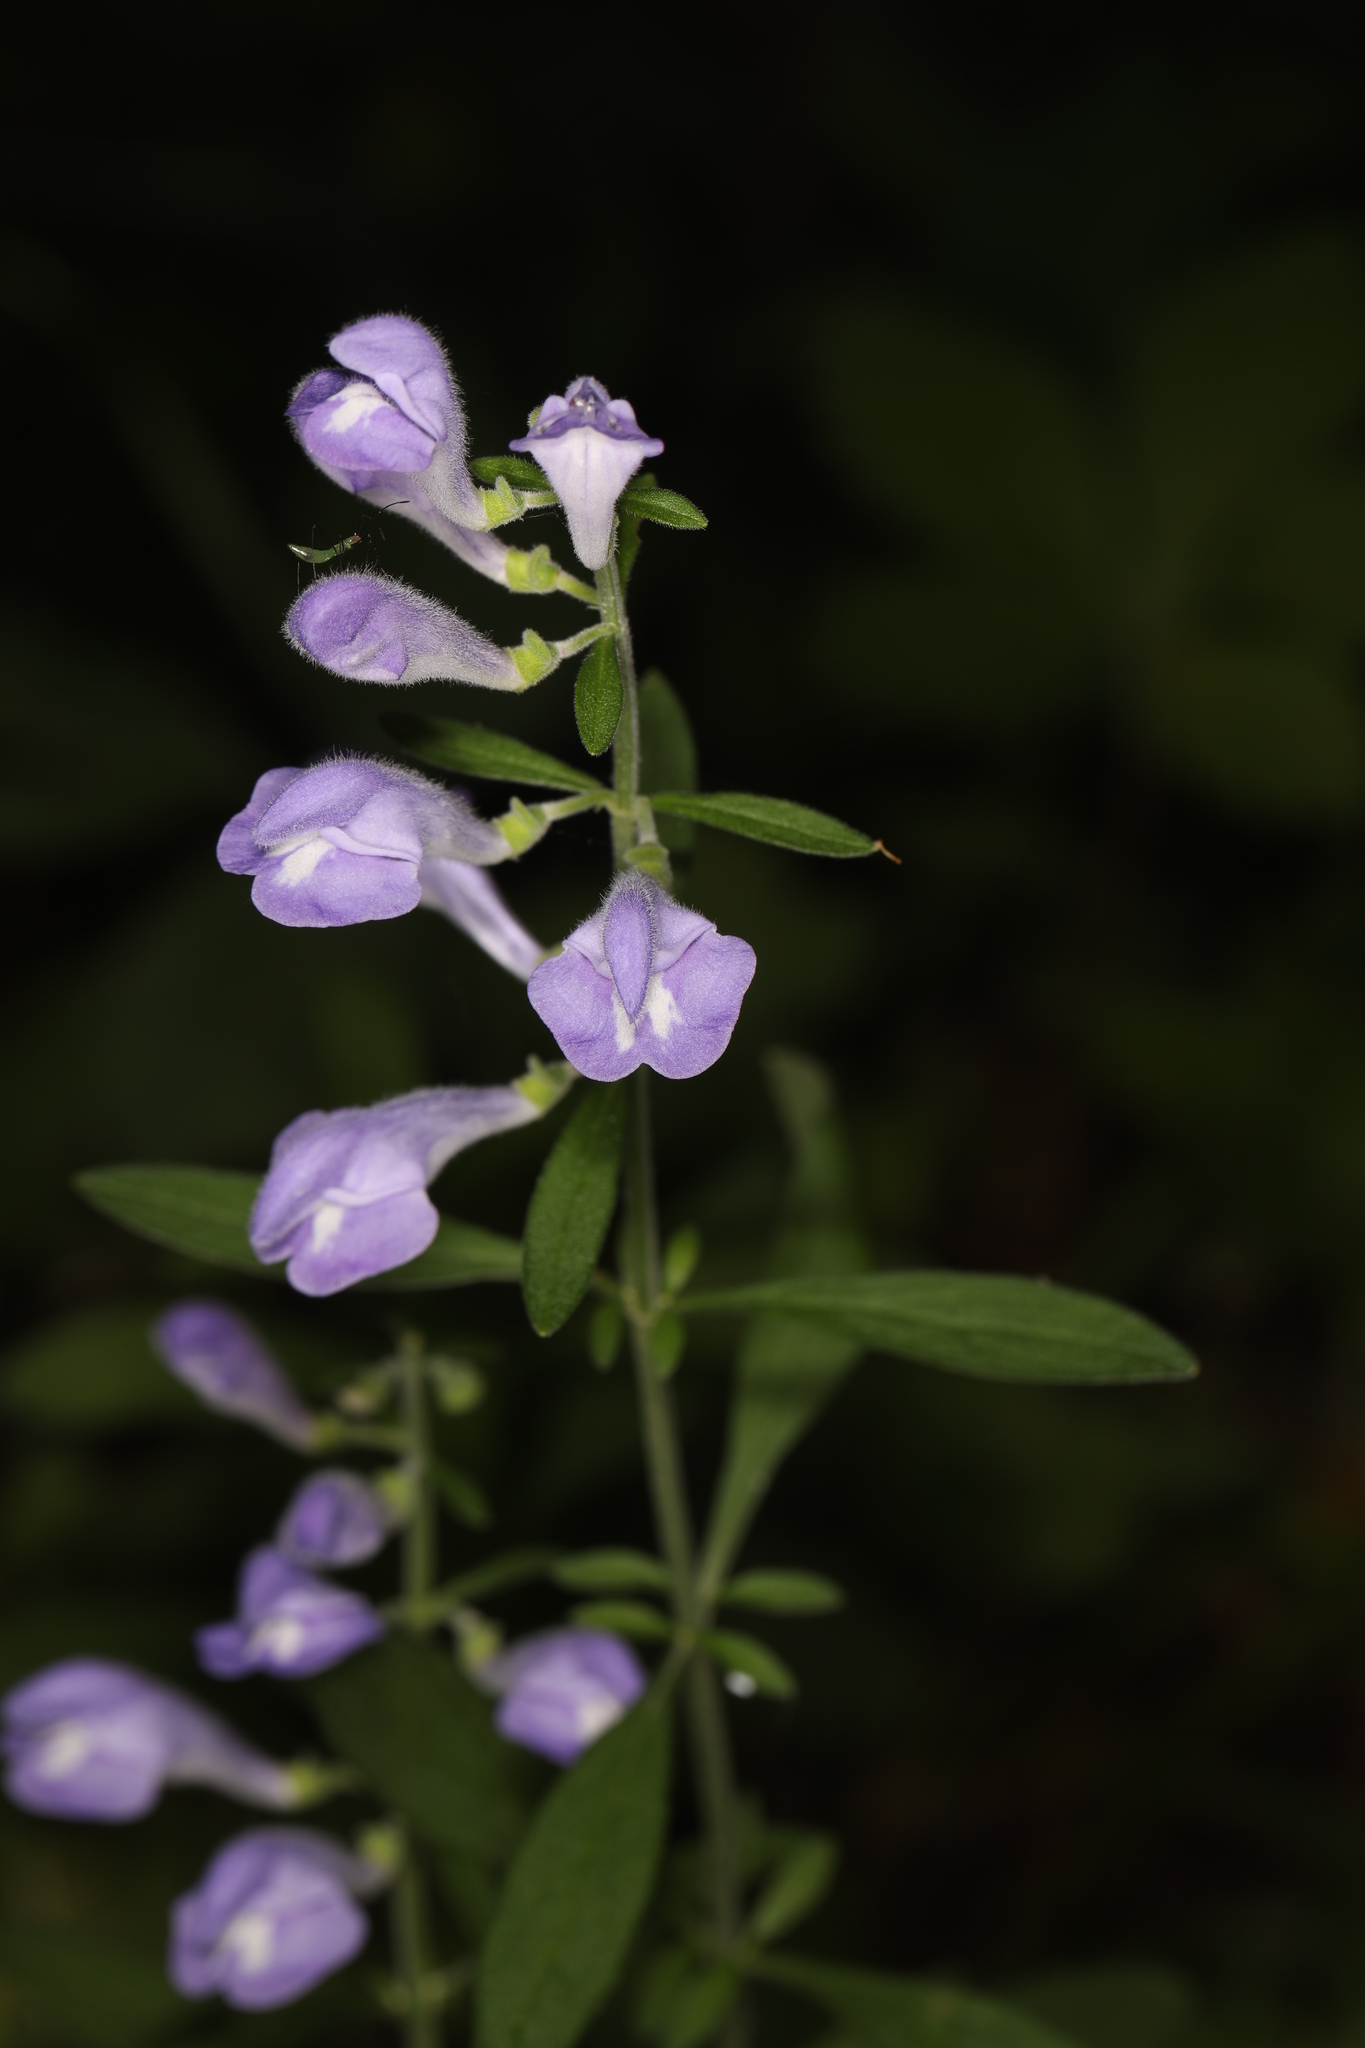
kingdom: Plantae
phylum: Tracheophyta
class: Magnoliopsida
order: Lamiales
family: Lamiaceae
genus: Scutellaria
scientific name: Scutellaria integrifolia
